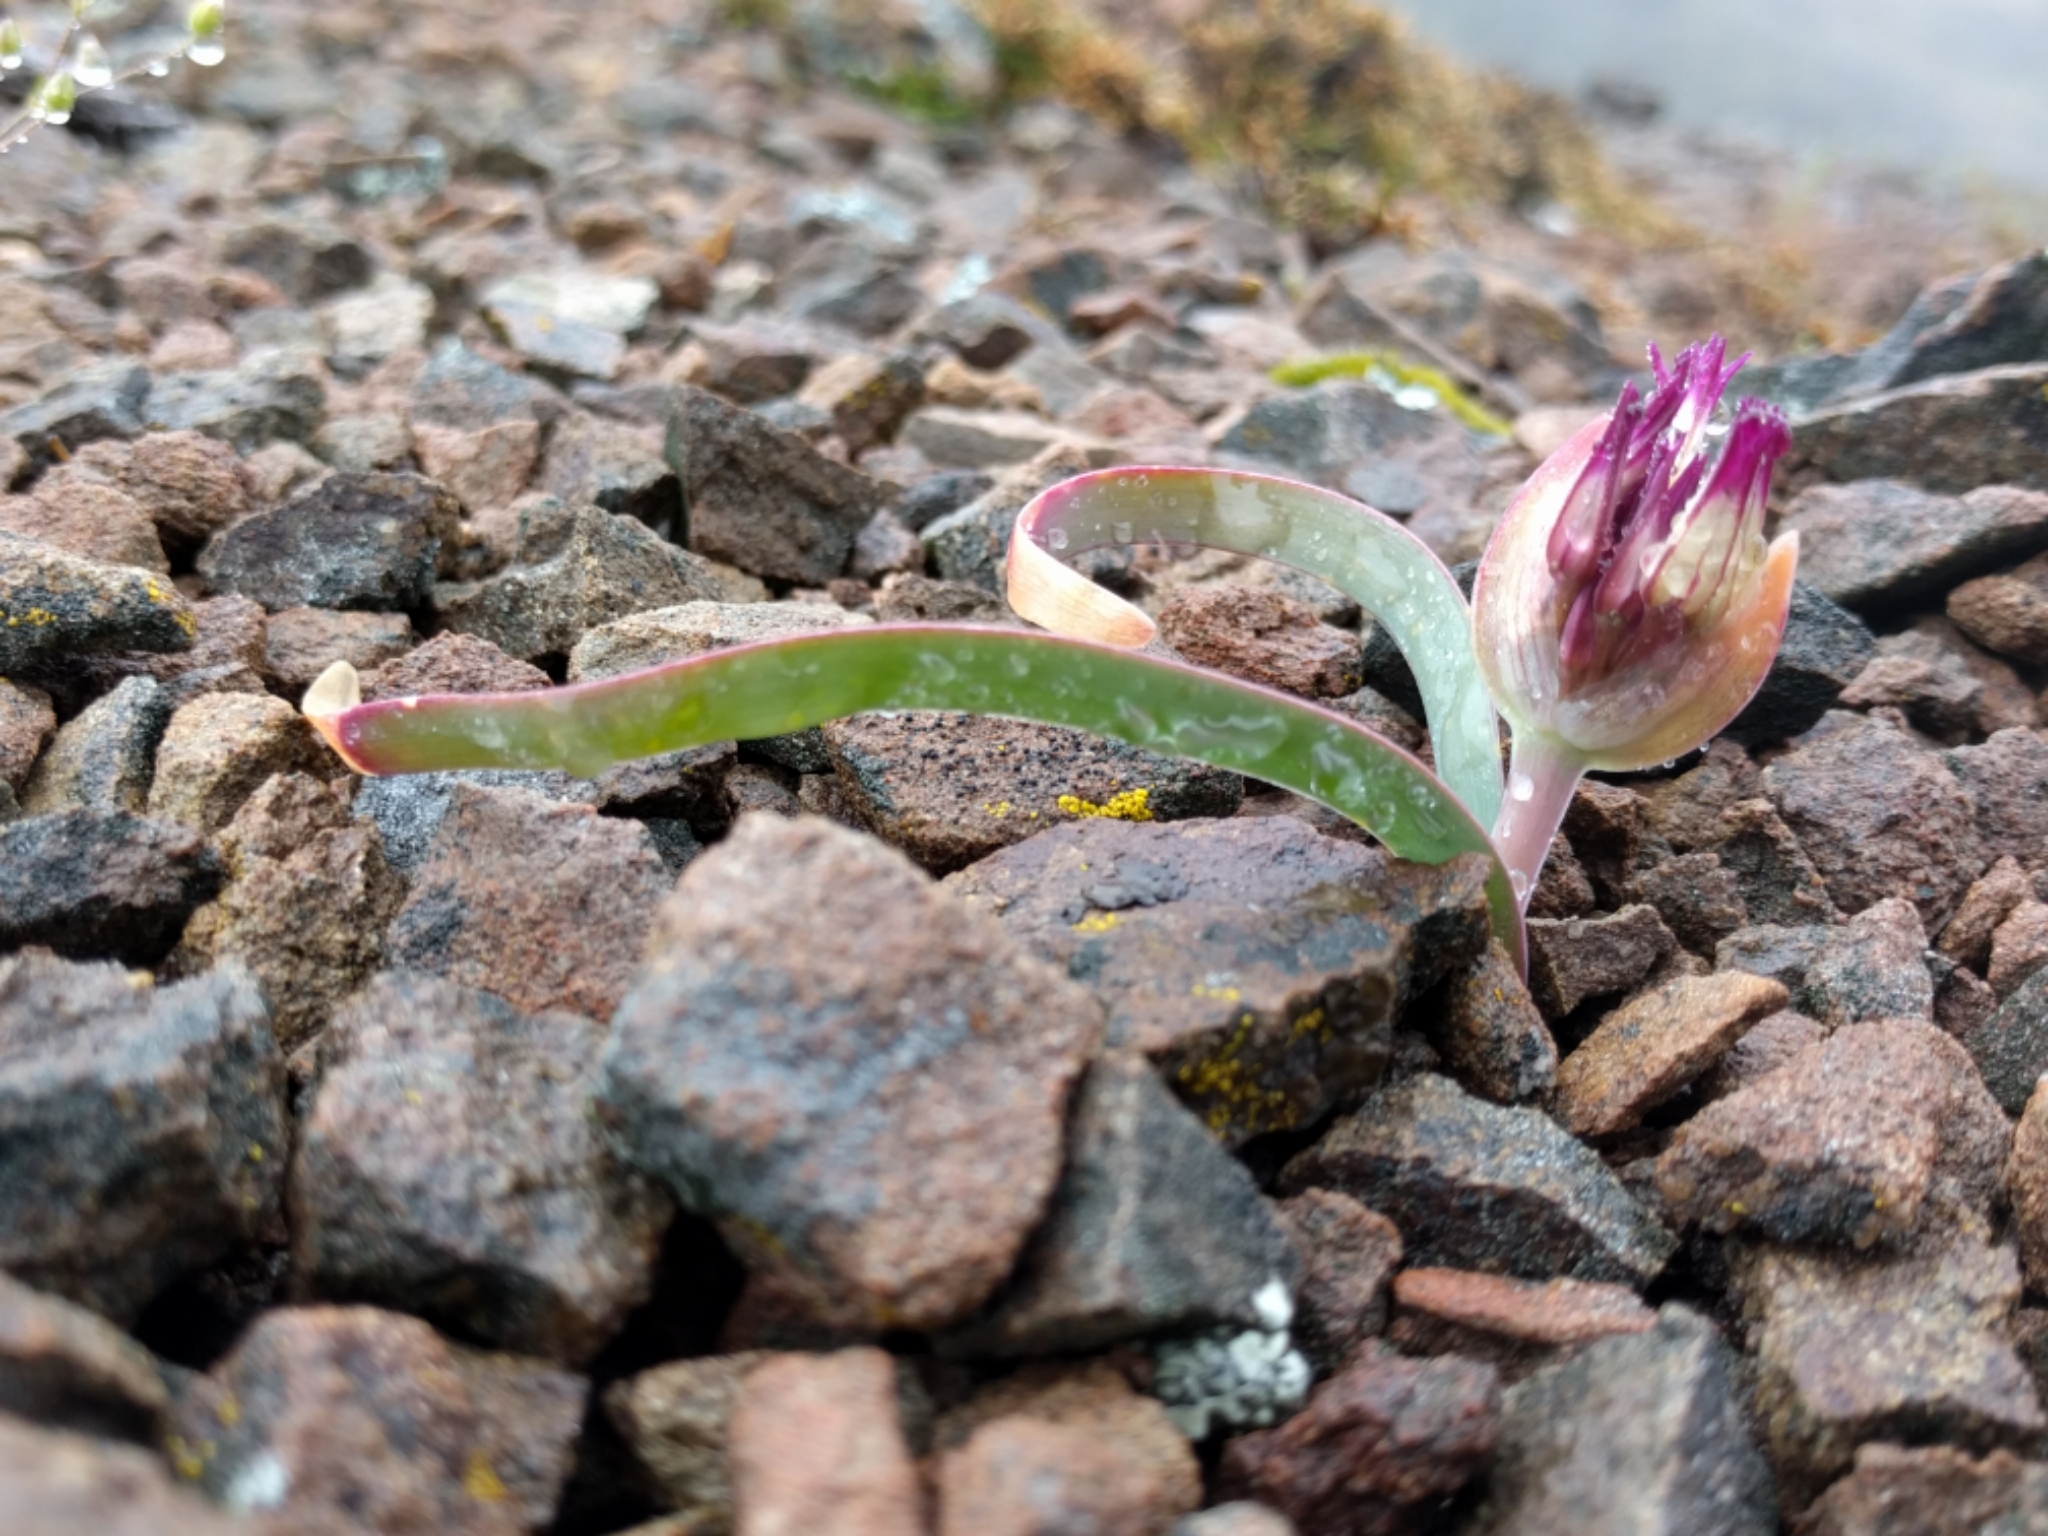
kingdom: Plantae
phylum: Tracheophyta
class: Liliopsida
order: Asparagales
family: Amaryllidaceae
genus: Allium
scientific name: Allium falcifolium
